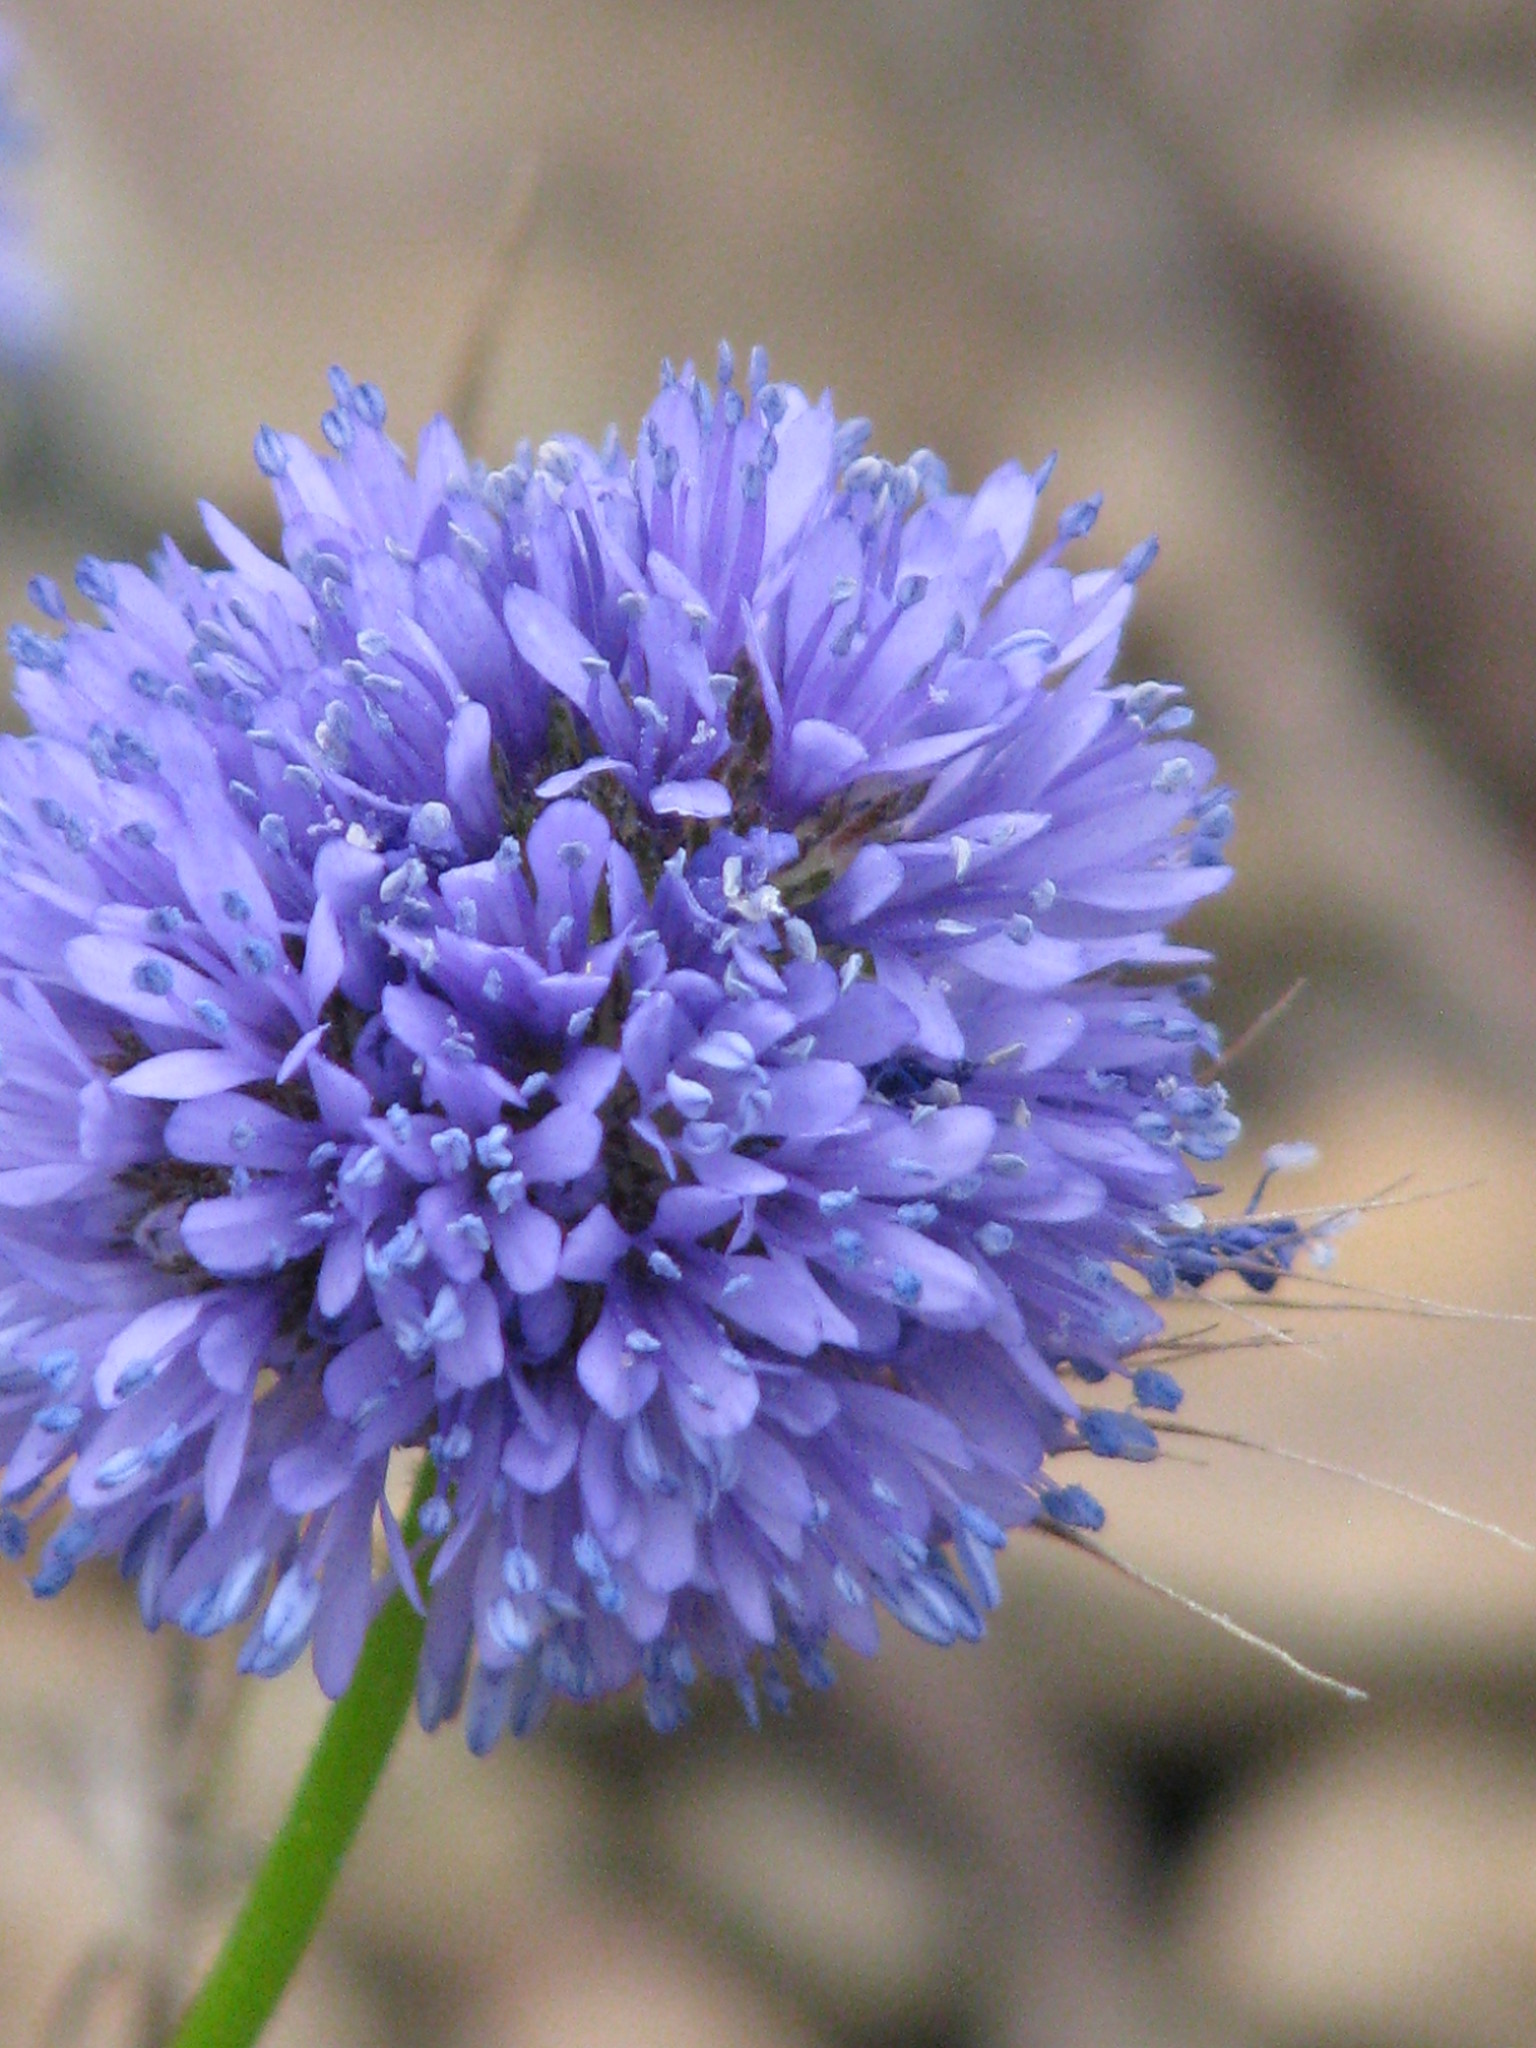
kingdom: Plantae
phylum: Tracheophyta
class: Magnoliopsida
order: Ericales
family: Polemoniaceae
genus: Gilia
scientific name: Gilia capitata
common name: Bluehead gilia
